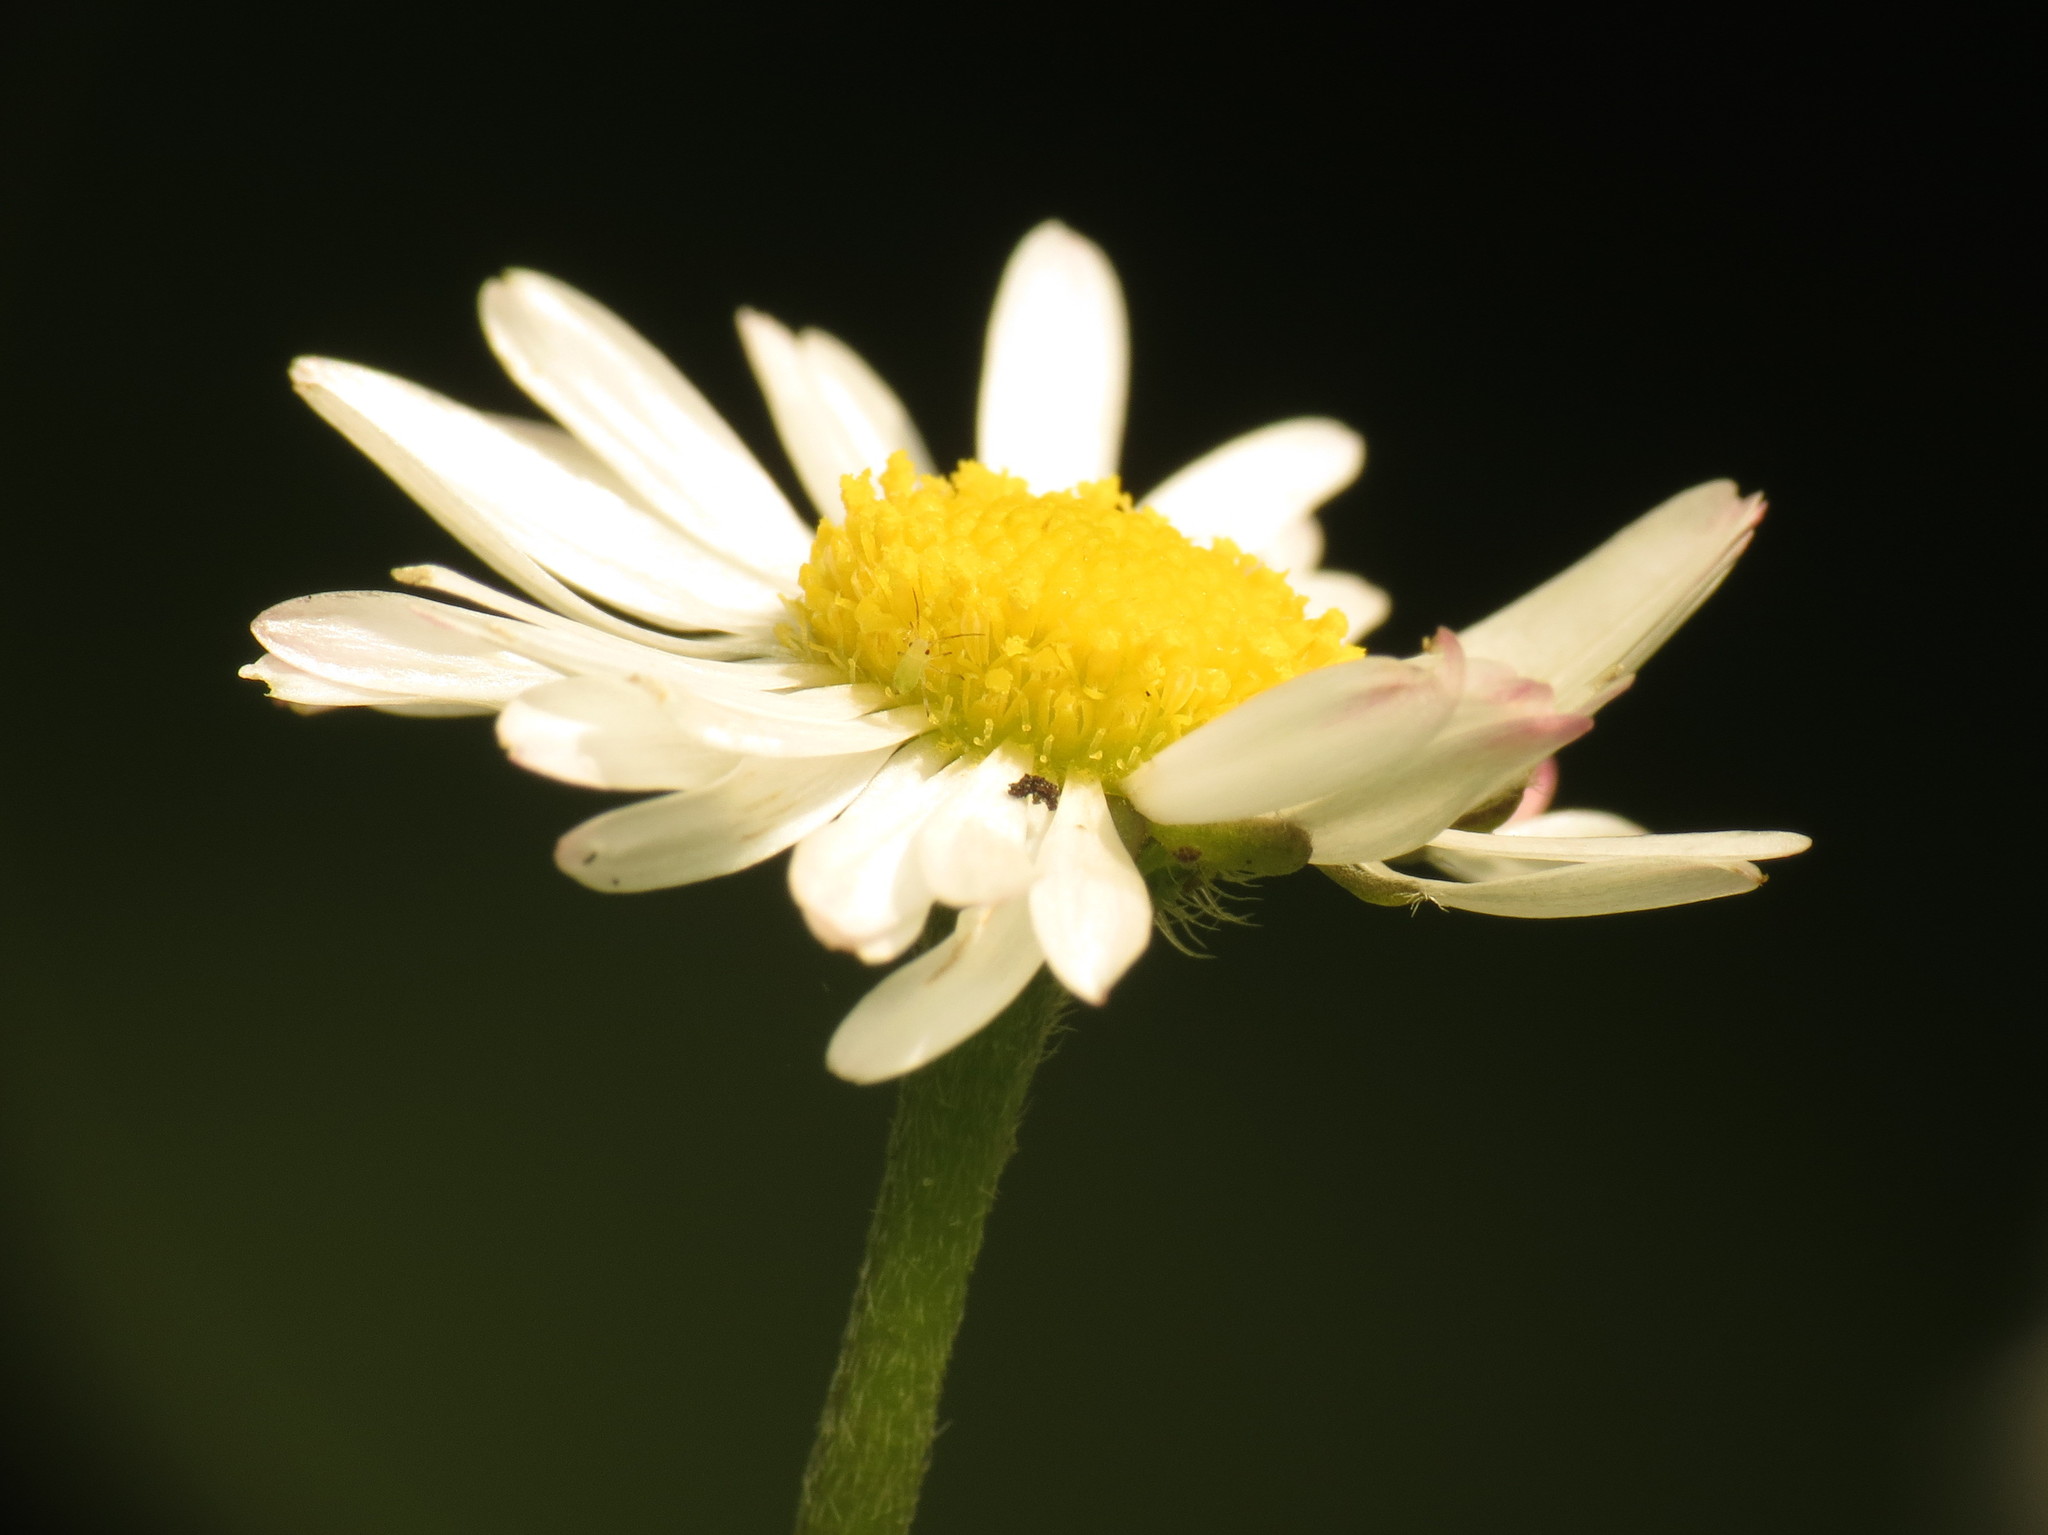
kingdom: Plantae
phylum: Tracheophyta
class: Magnoliopsida
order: Asterales
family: Asteraceae
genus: Bellis
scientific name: Bellis perennis
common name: Lawndaisy
